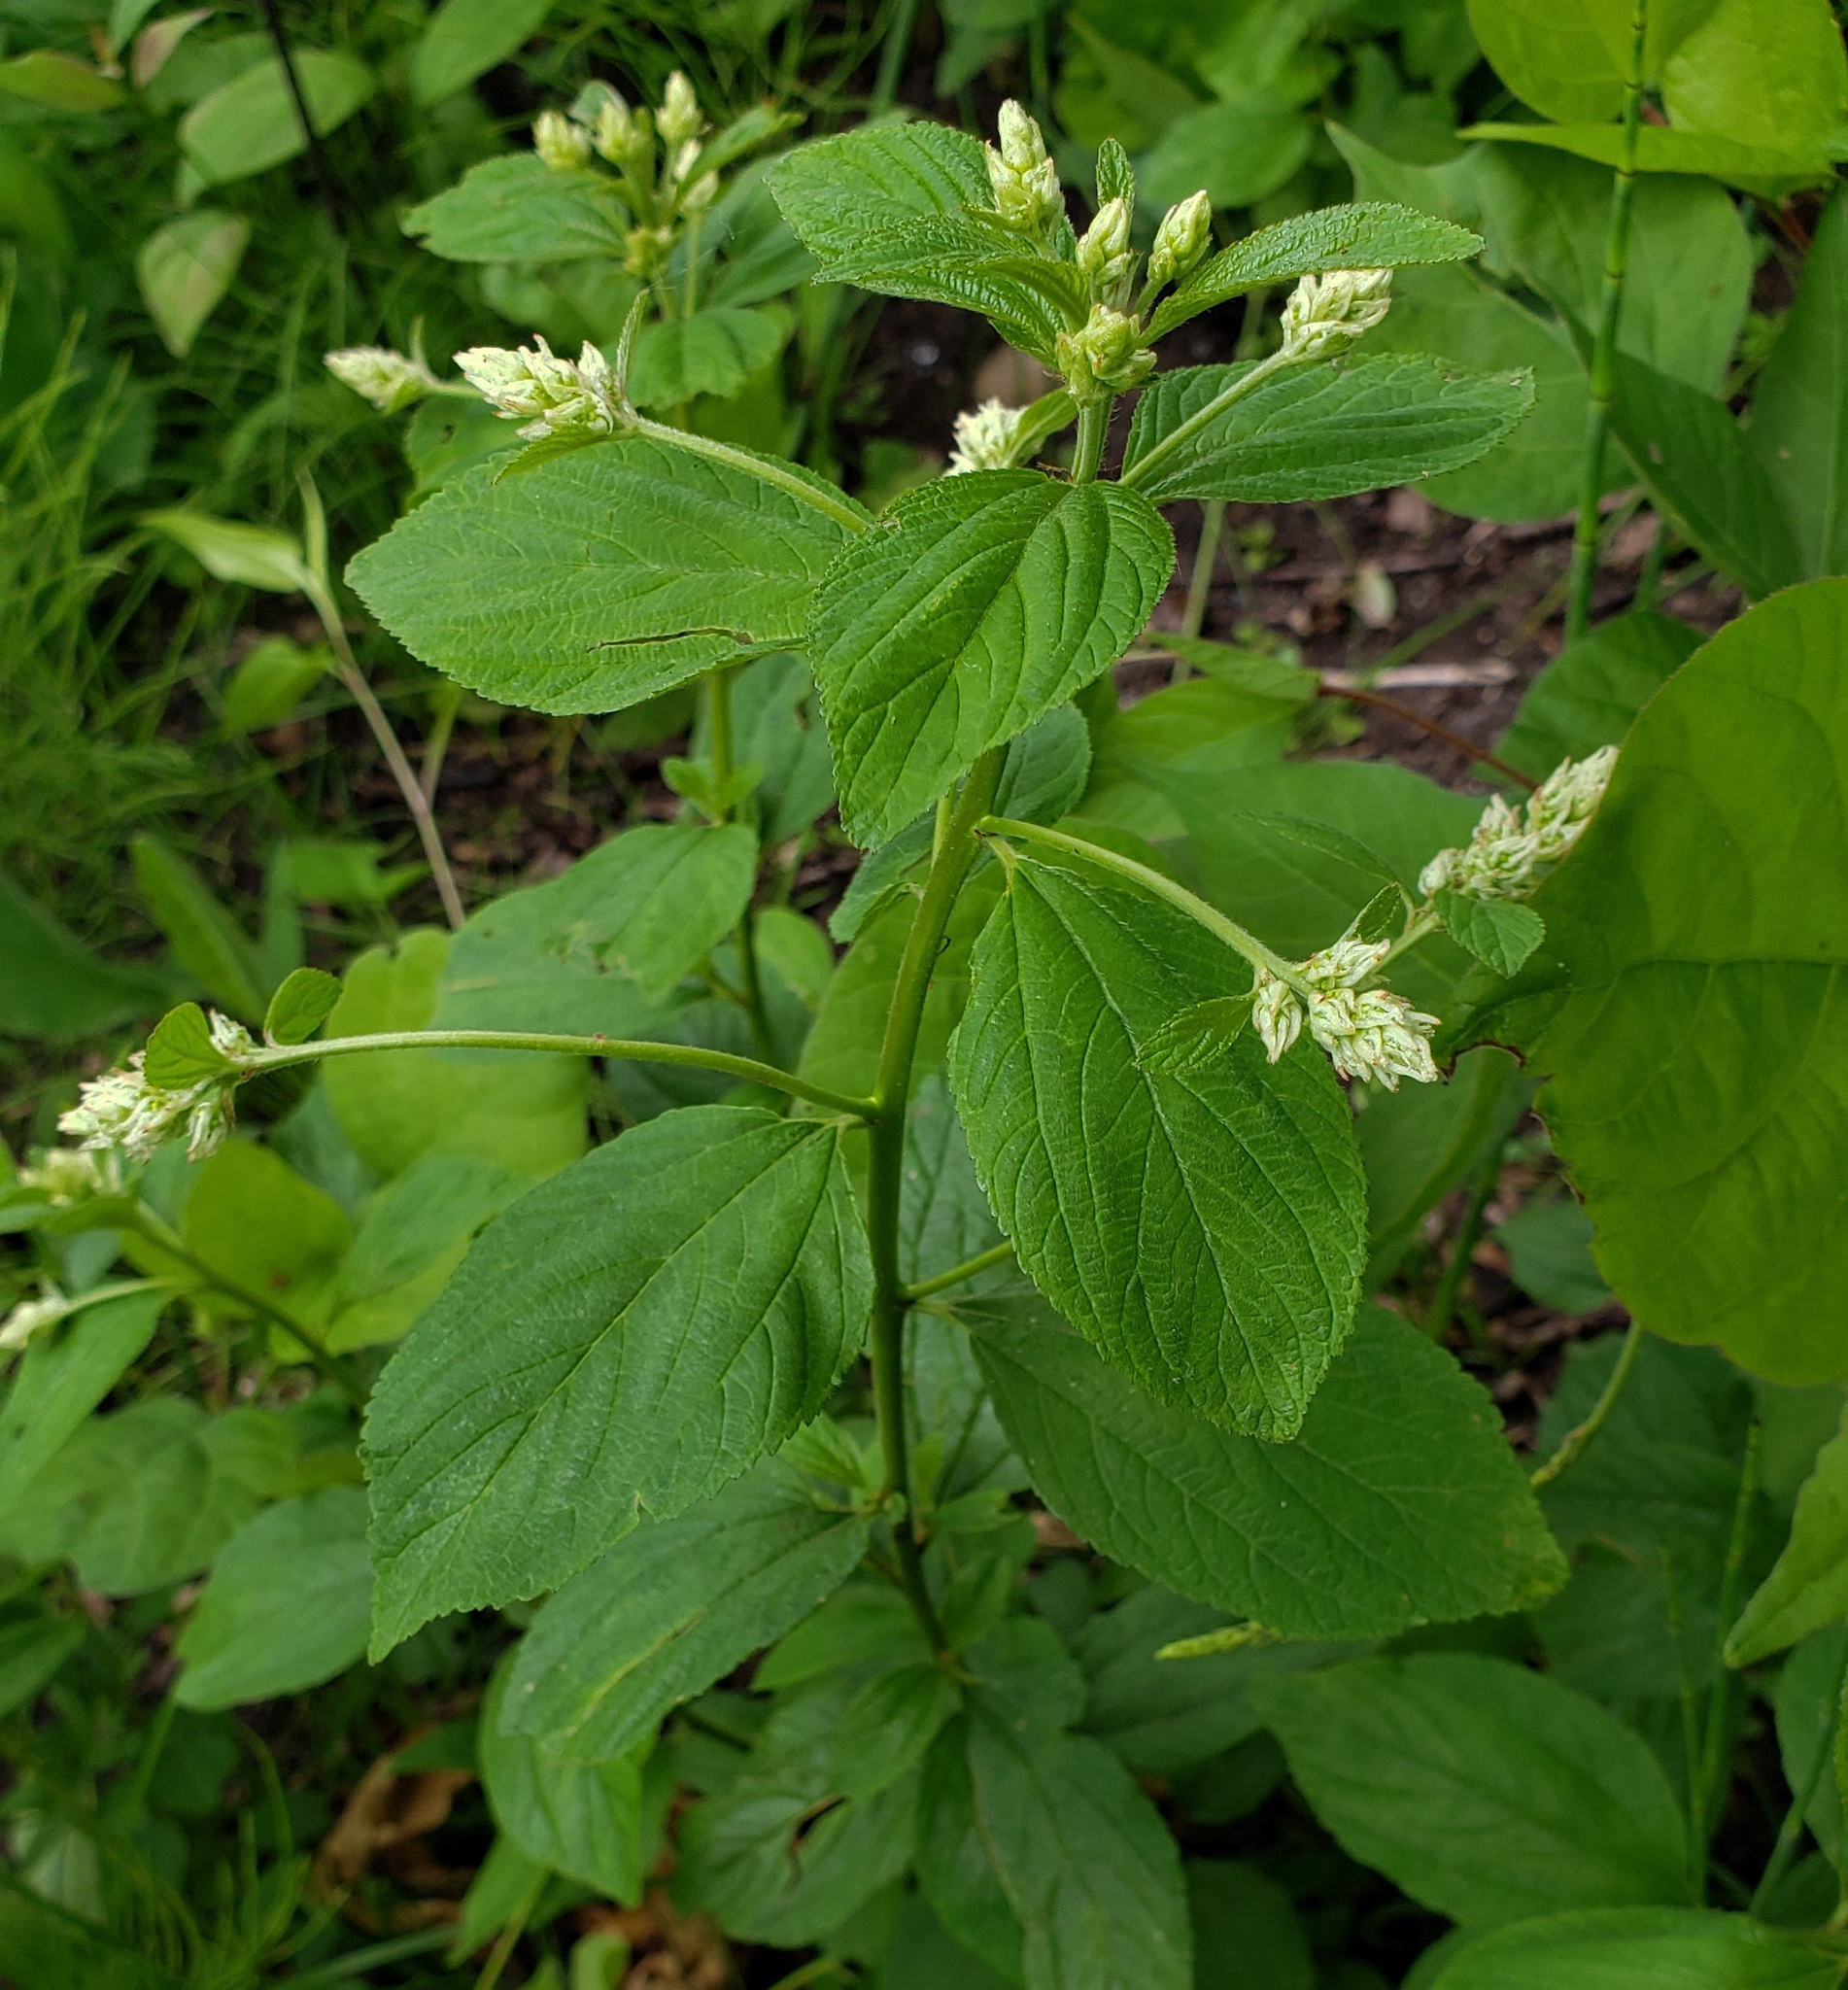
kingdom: Plantae
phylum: Tracheophyta
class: Magnoliopsida
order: Rosales
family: Rhamnaceae
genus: Ceanothus
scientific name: Ceanothus americanus
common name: Redroot
